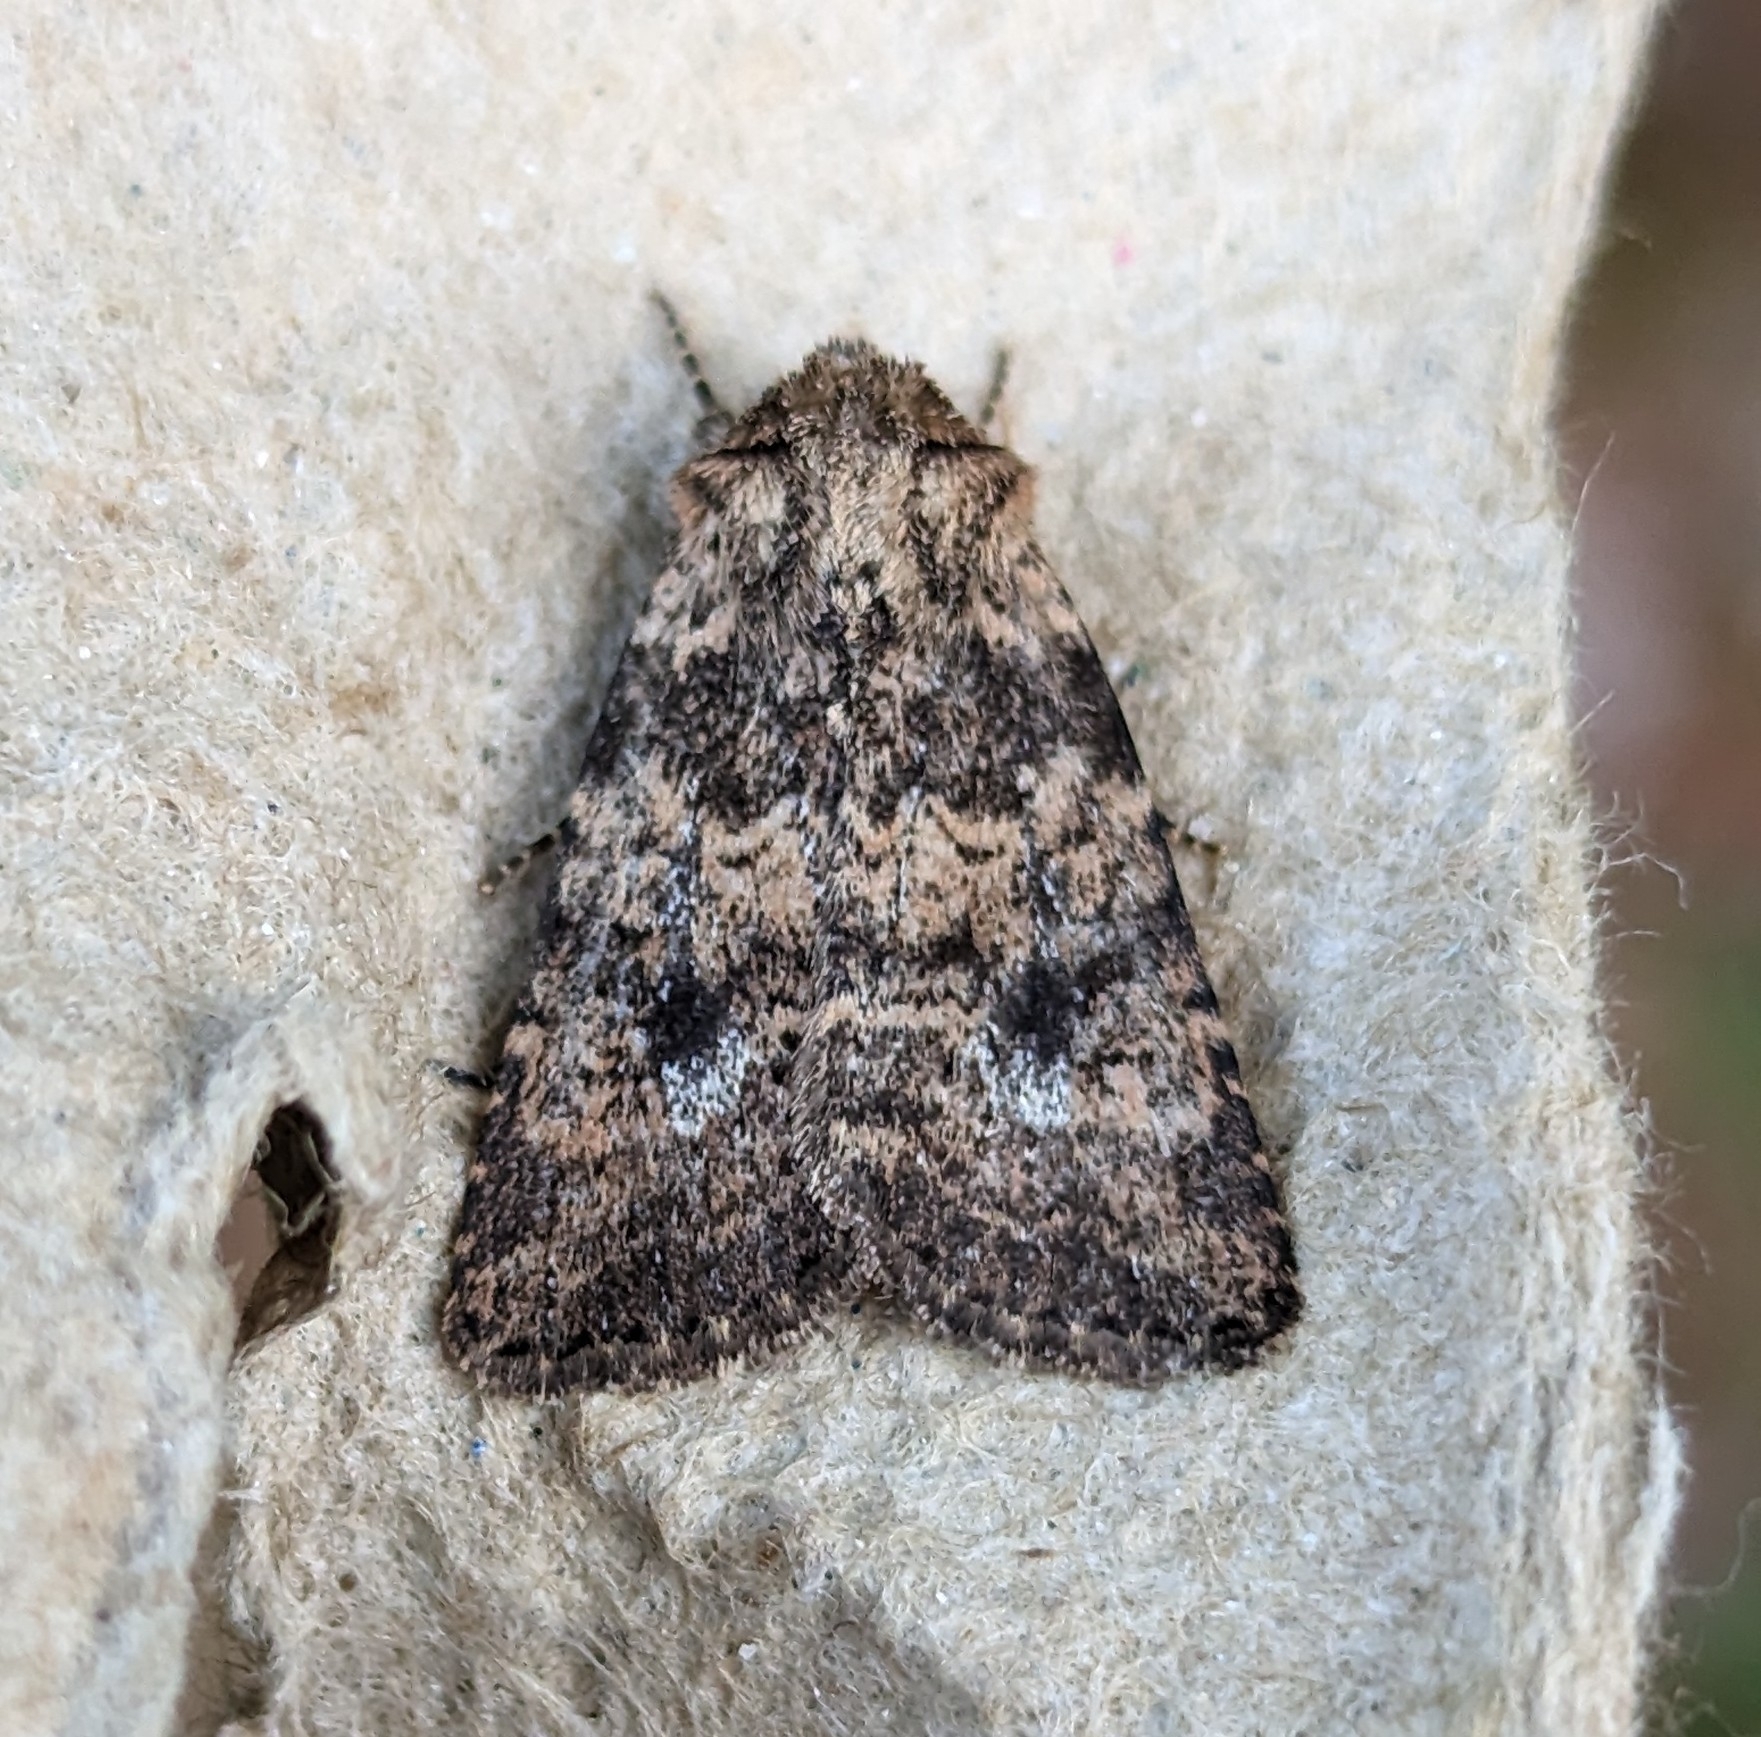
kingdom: Animalia
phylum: Arthropoda
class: Insecta
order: Lepidoptera
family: Noctuidae
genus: Homorthodes
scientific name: Homorthodes hanhami
